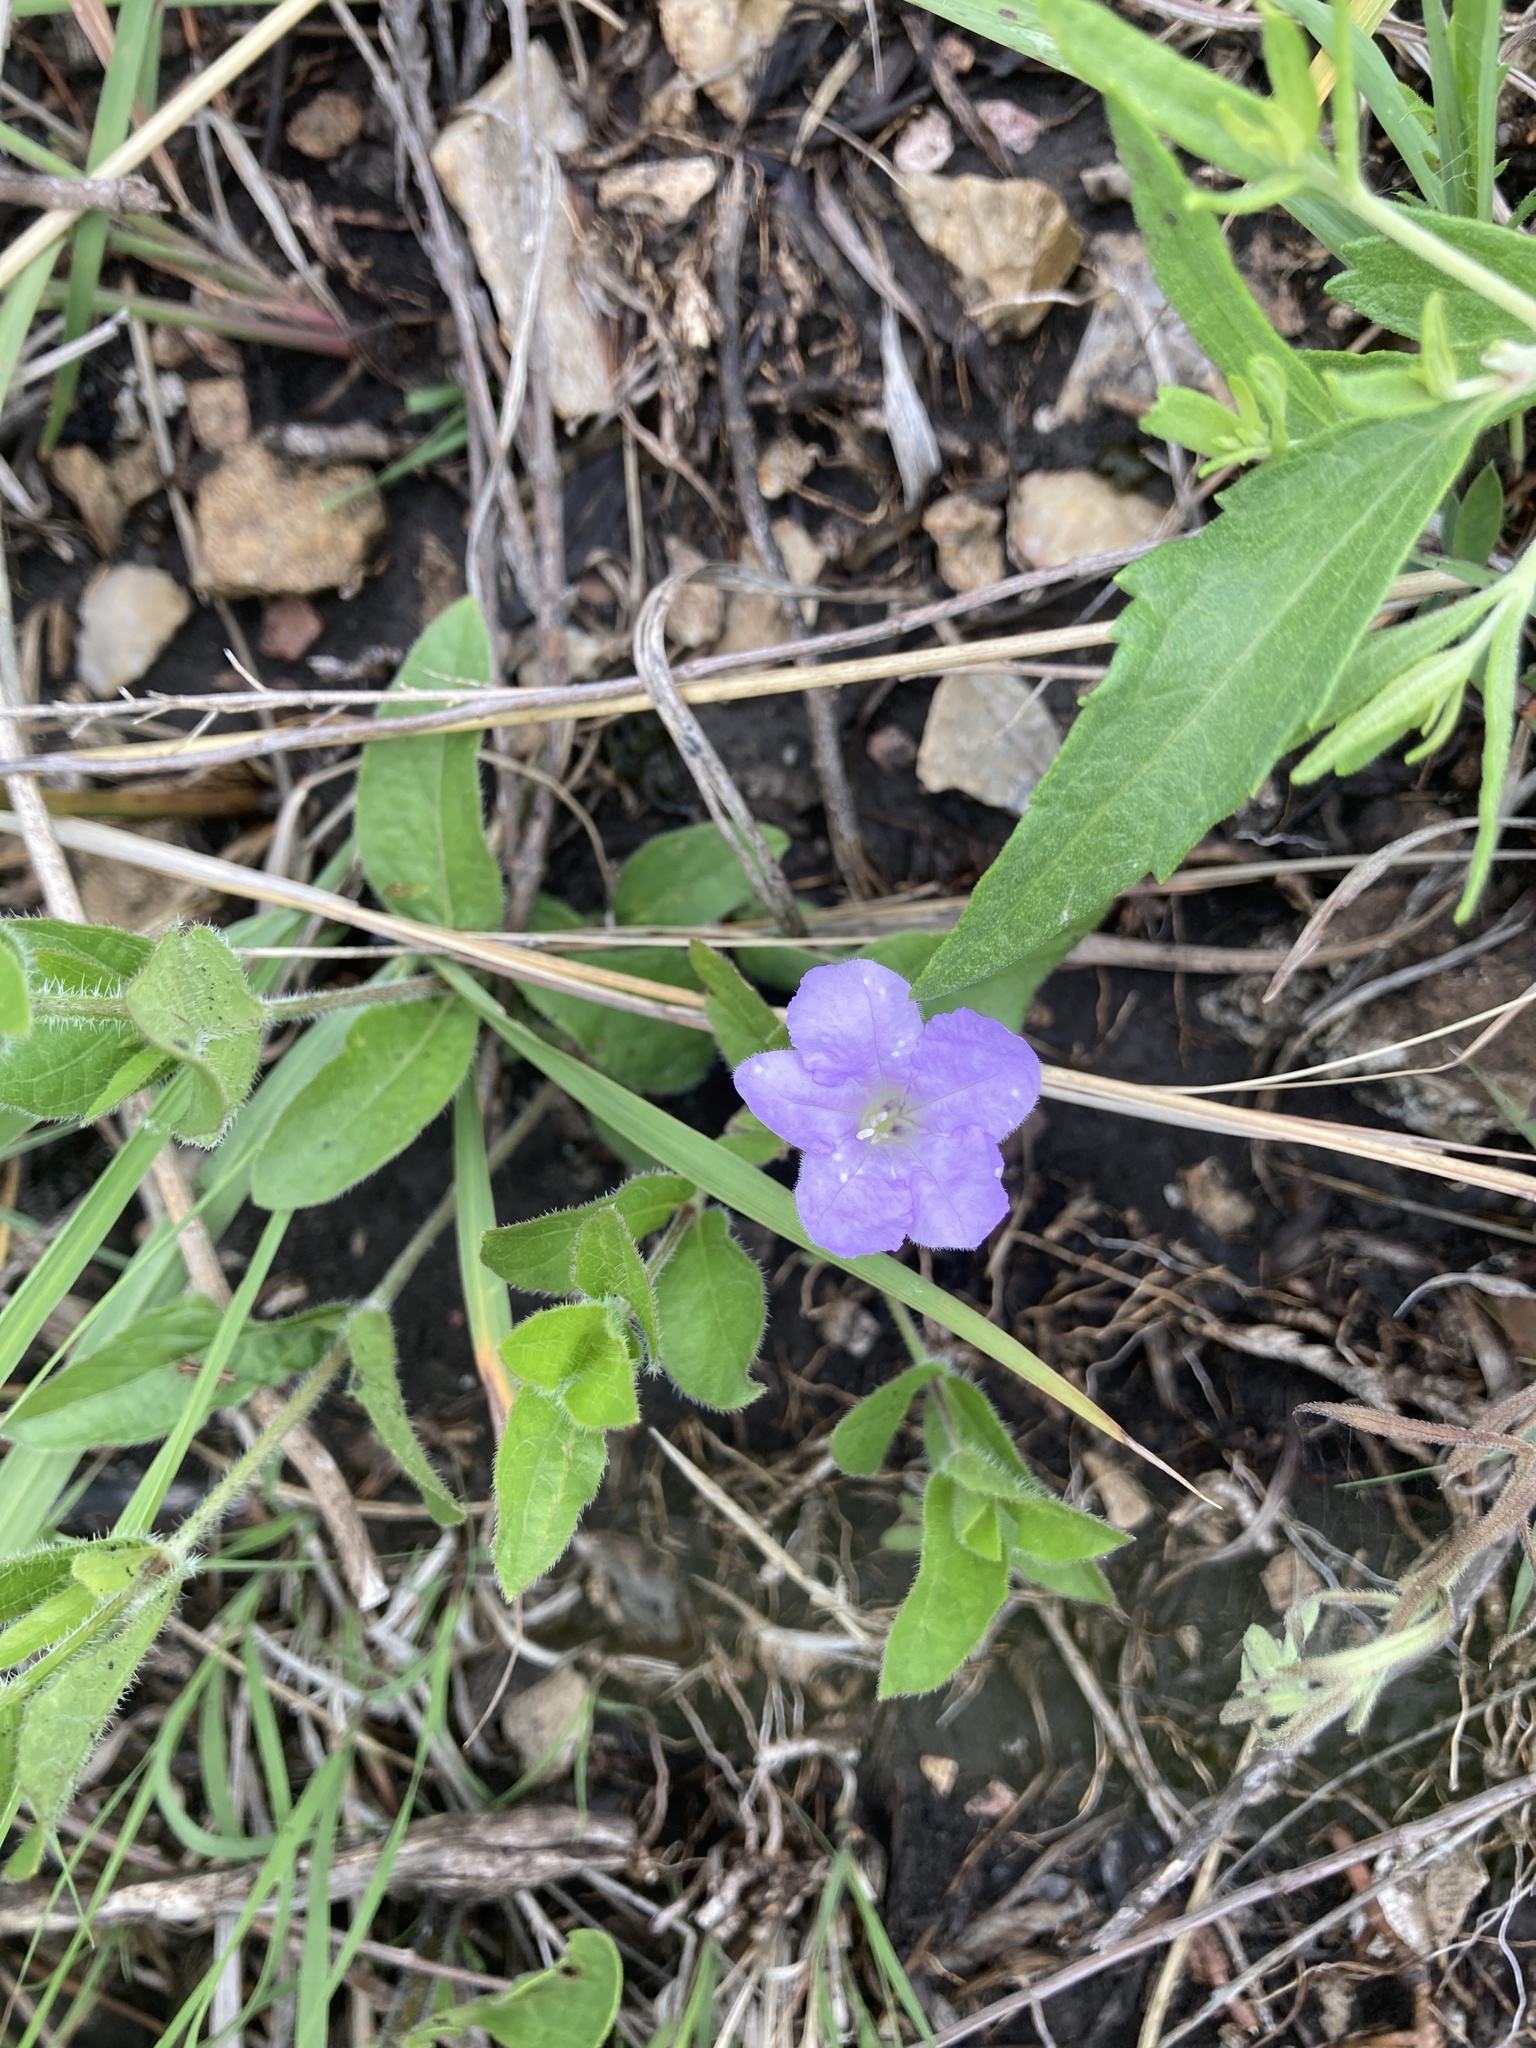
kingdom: Plantae
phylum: Tracheophyta
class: Magnoliopsida
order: Lamiales
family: Acanthaceae
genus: Ruellia
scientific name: Ruellia humilis
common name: Fringe-leaf ruellia
